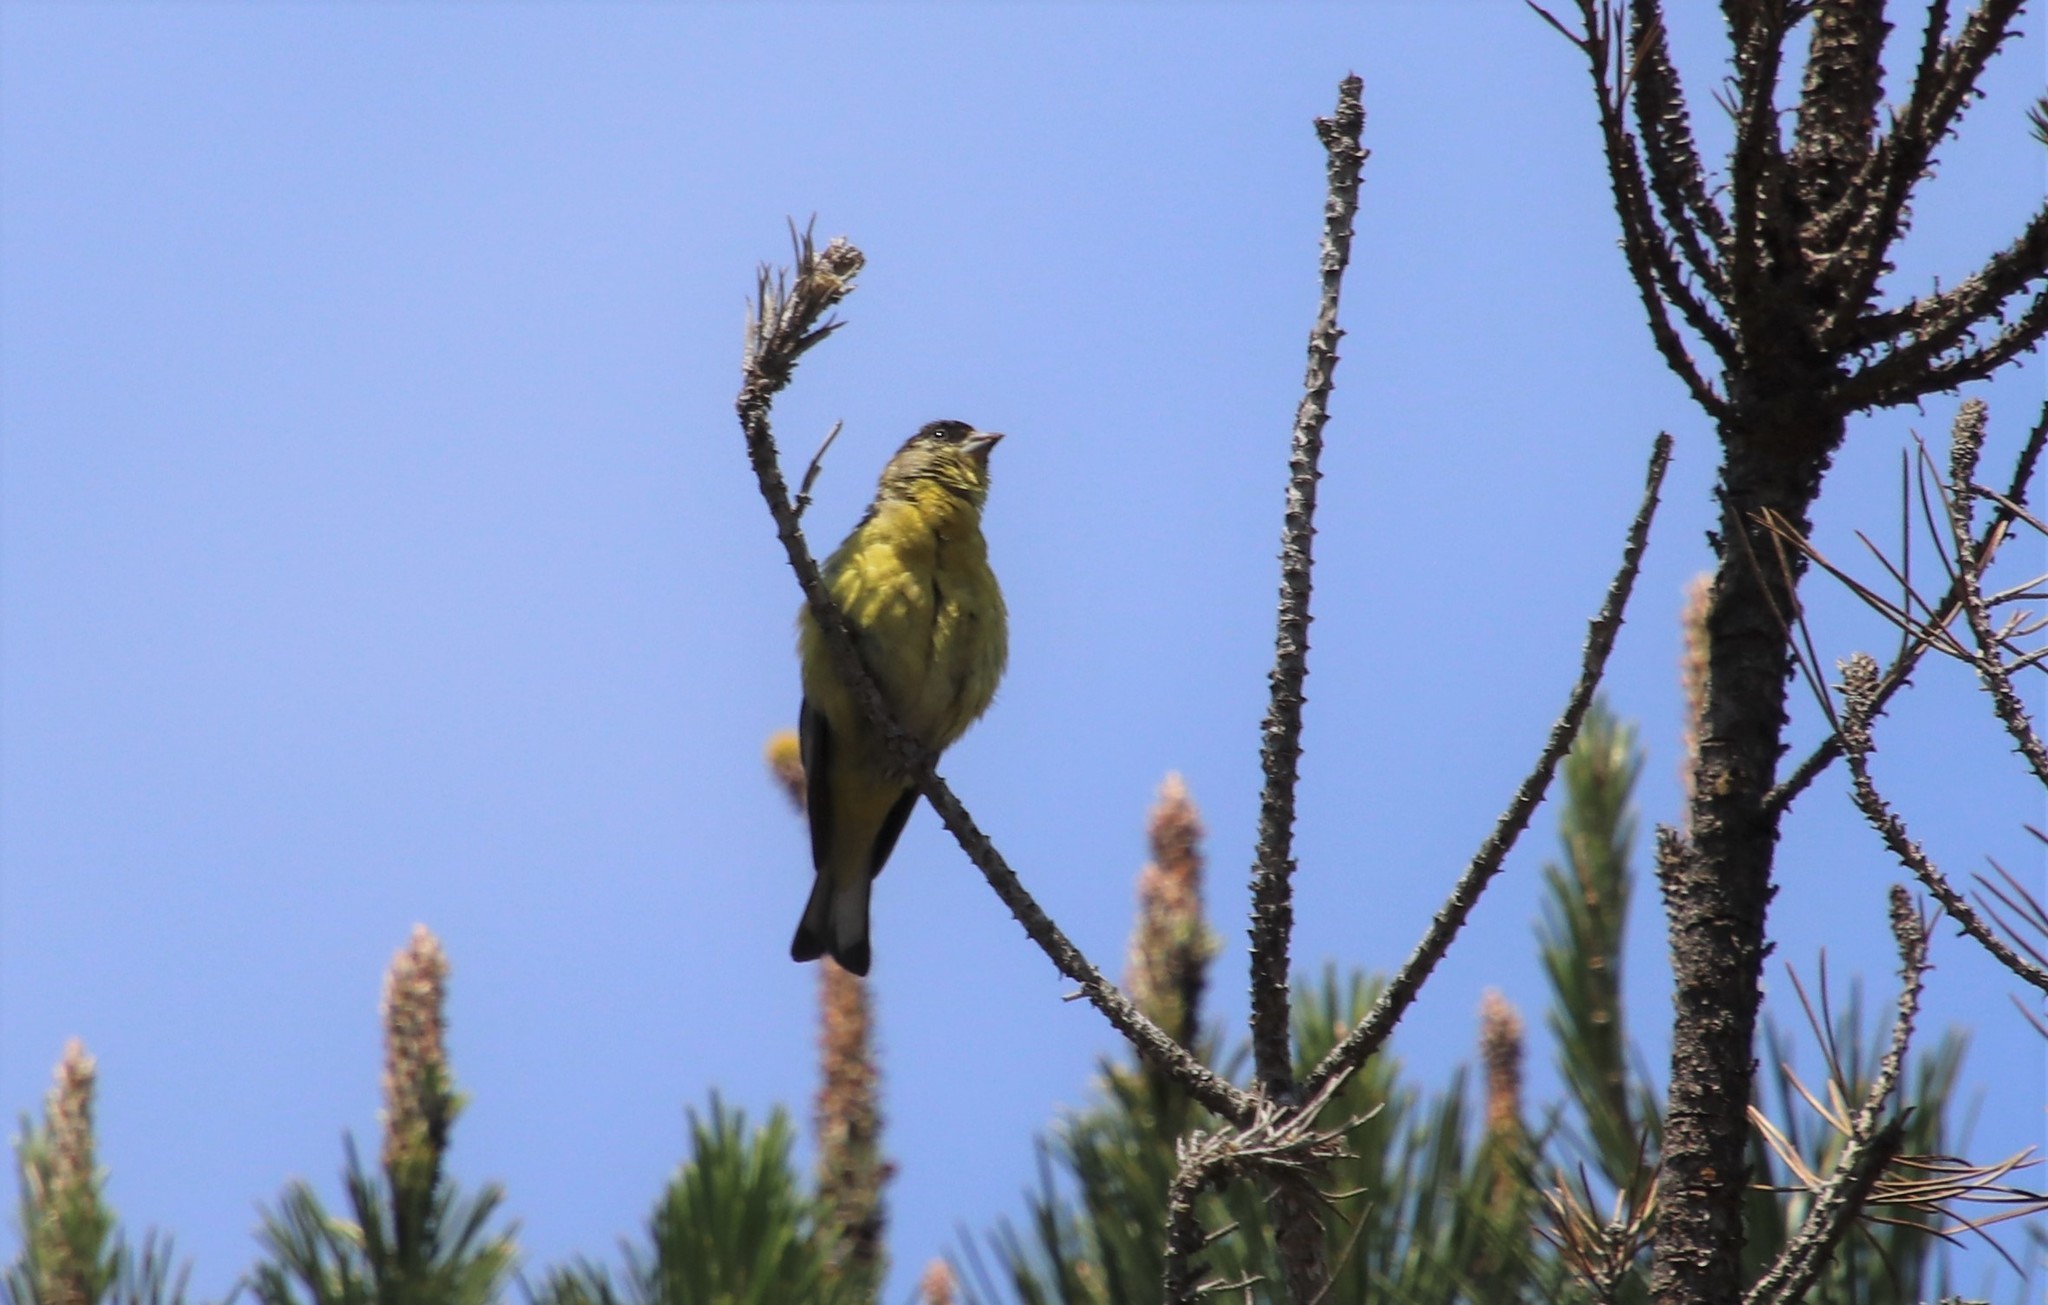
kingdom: Animalia
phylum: Chordata
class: Aves
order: Passeriformes
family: Fringillidae
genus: Spinus
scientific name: Spinus psaltria
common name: Lesser goldfinch
